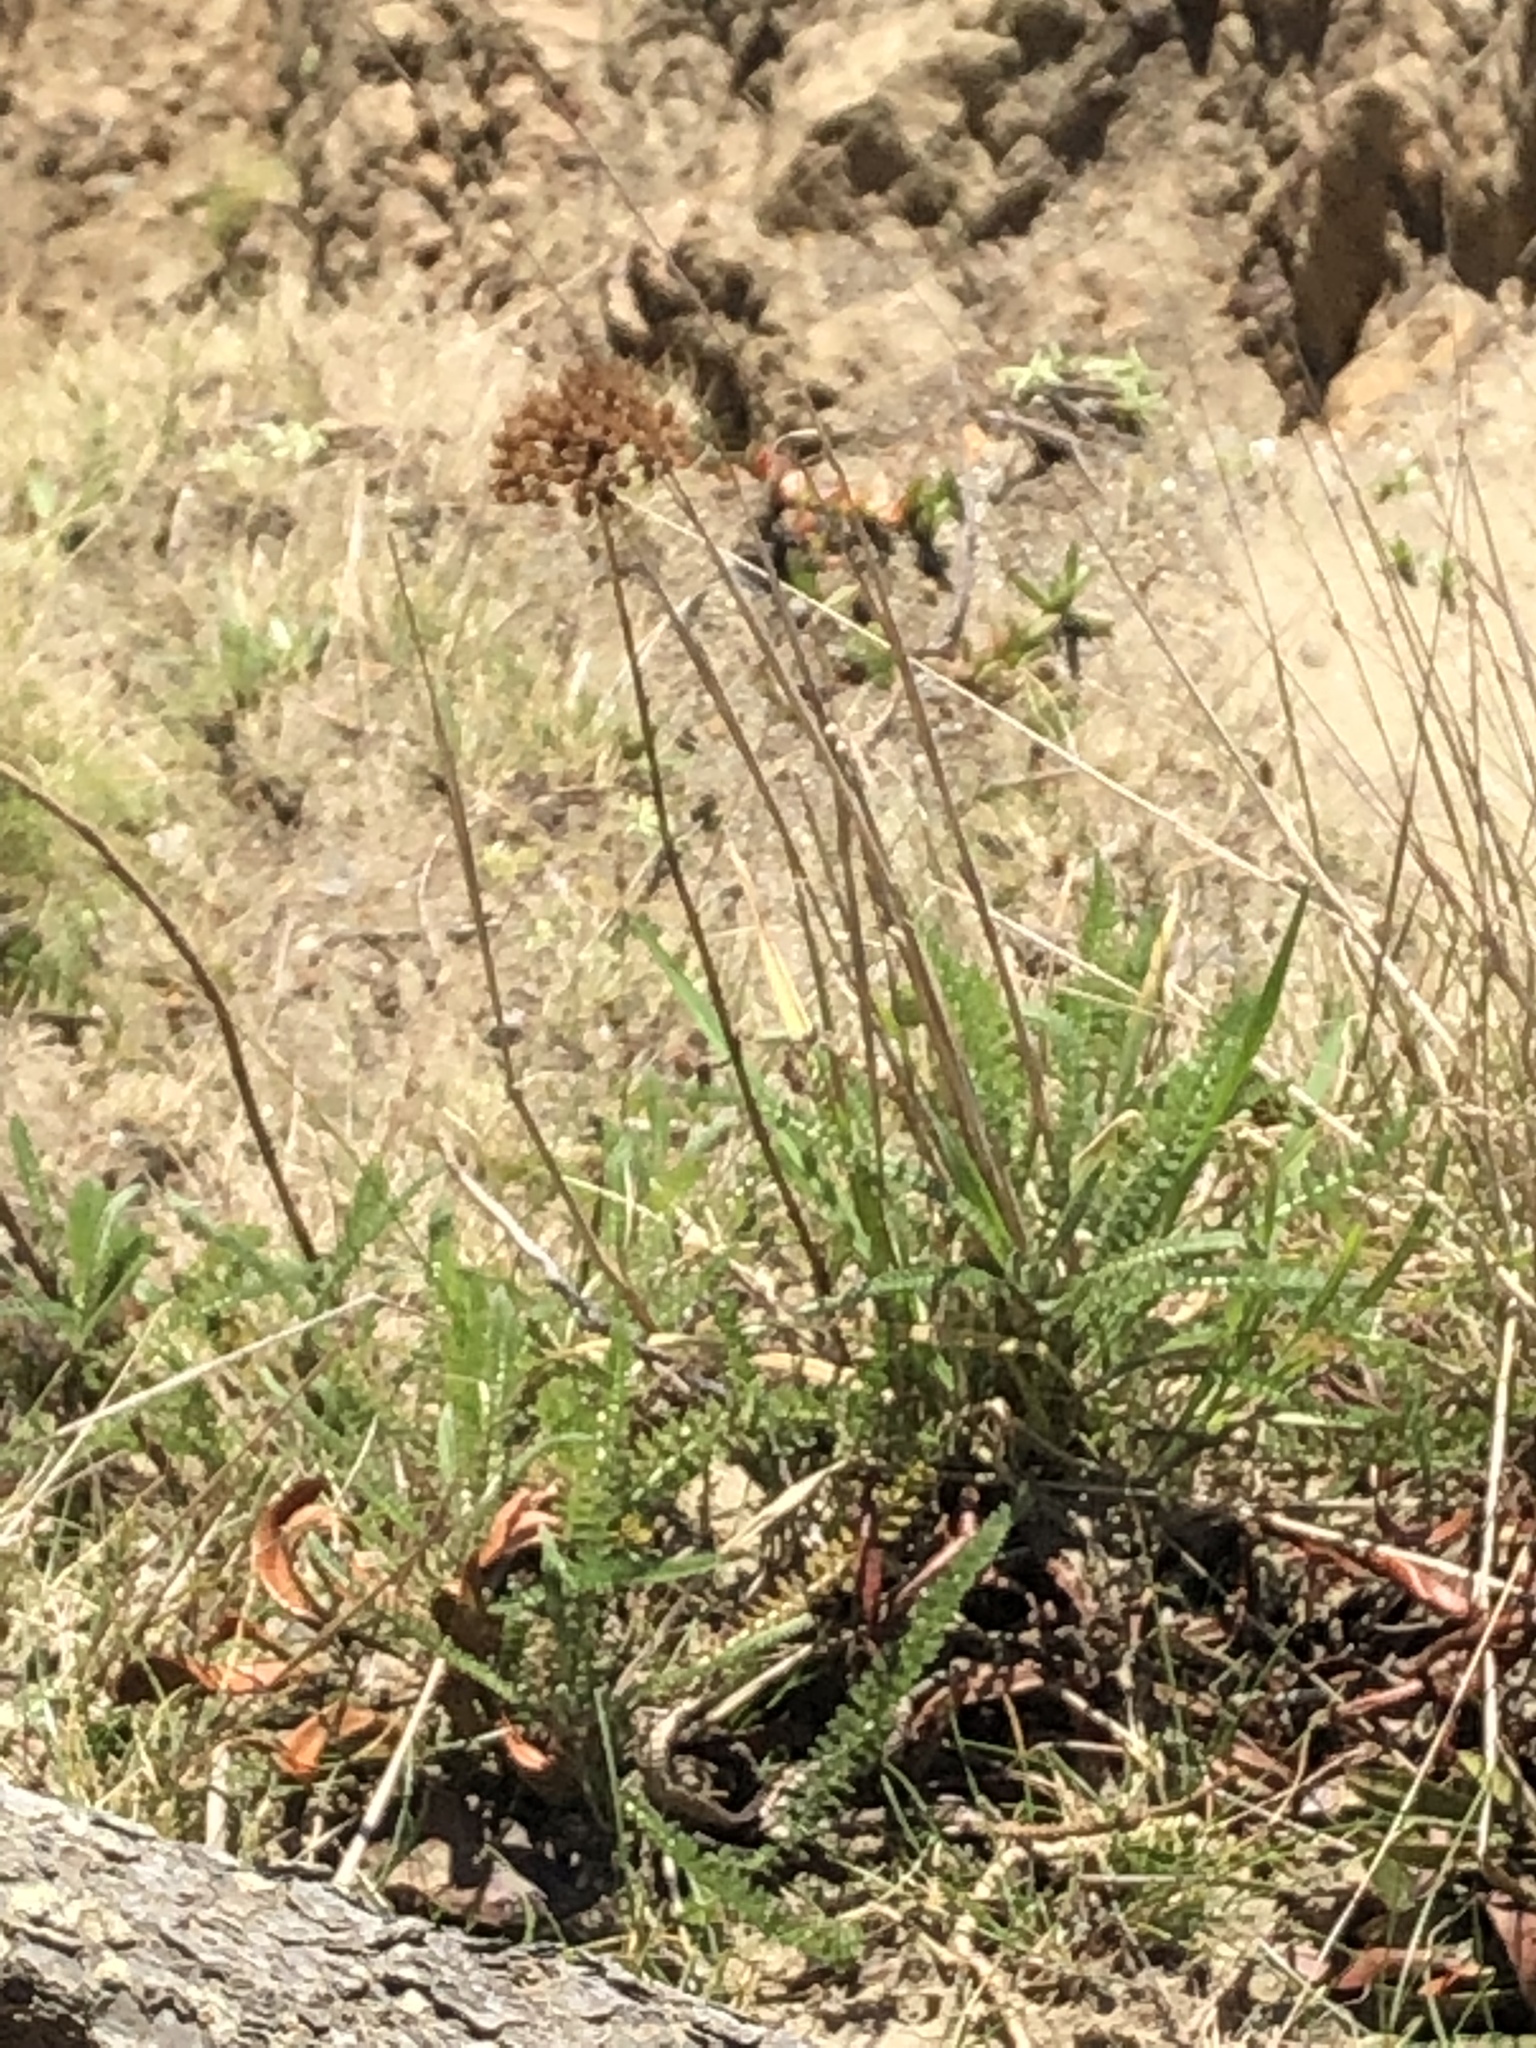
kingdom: Plantae
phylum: Tracheophyta
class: Magnoliopsida
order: Asterales
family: Asteraceae
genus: Achillea
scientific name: Achillea millefolium
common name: Yarrow
